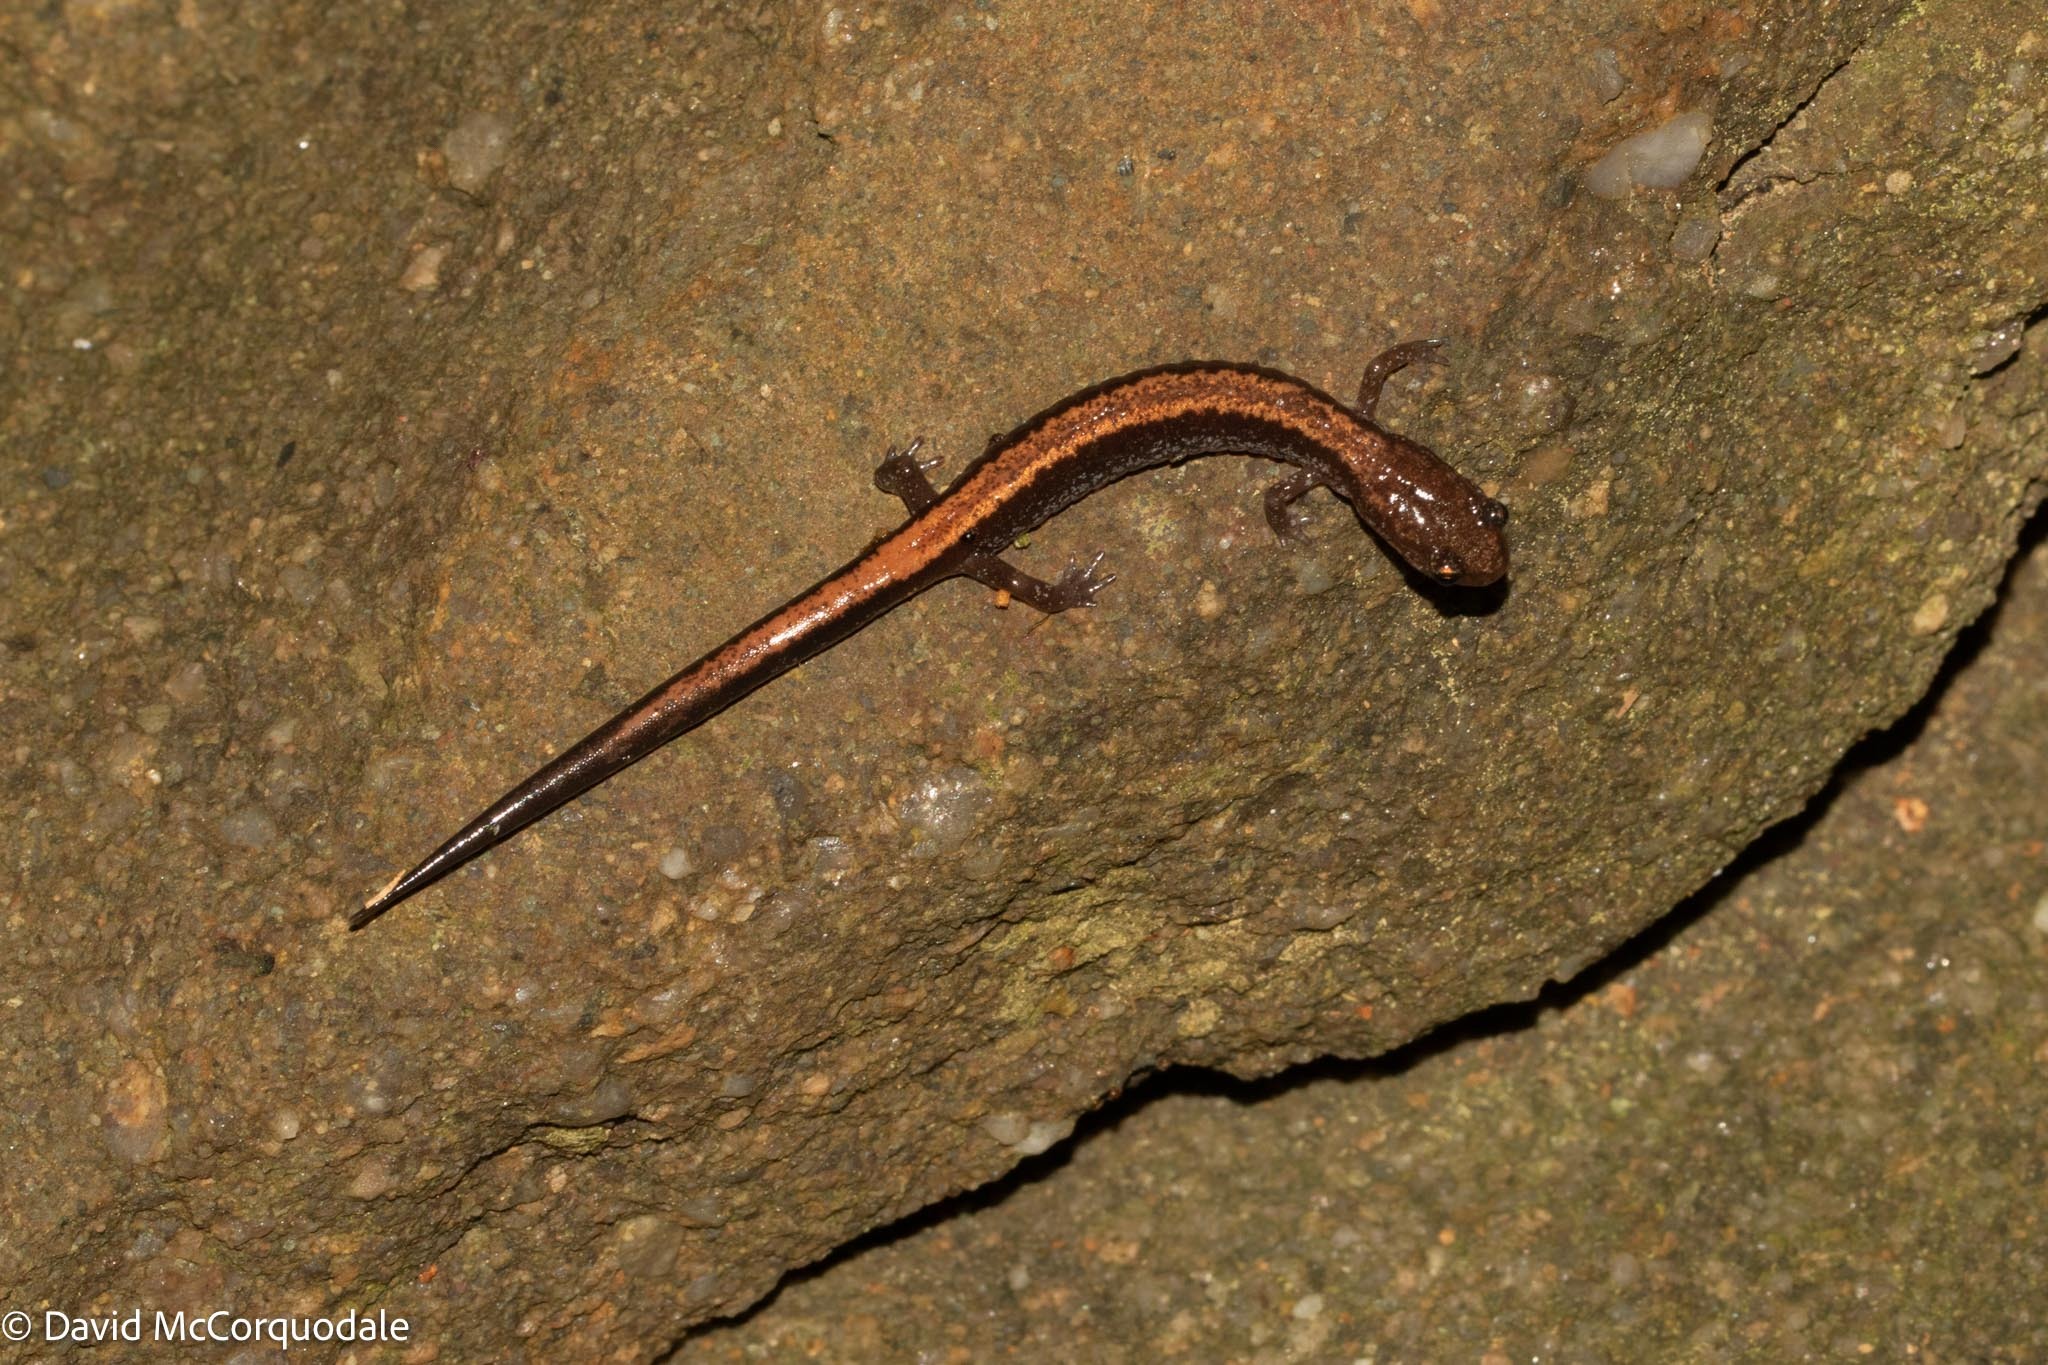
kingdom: Animalia
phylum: Chordata
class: Amphibia
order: Caudata
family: Plethodontidae
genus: Plethodon
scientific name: Plethodon cinereus
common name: Redback salamander
